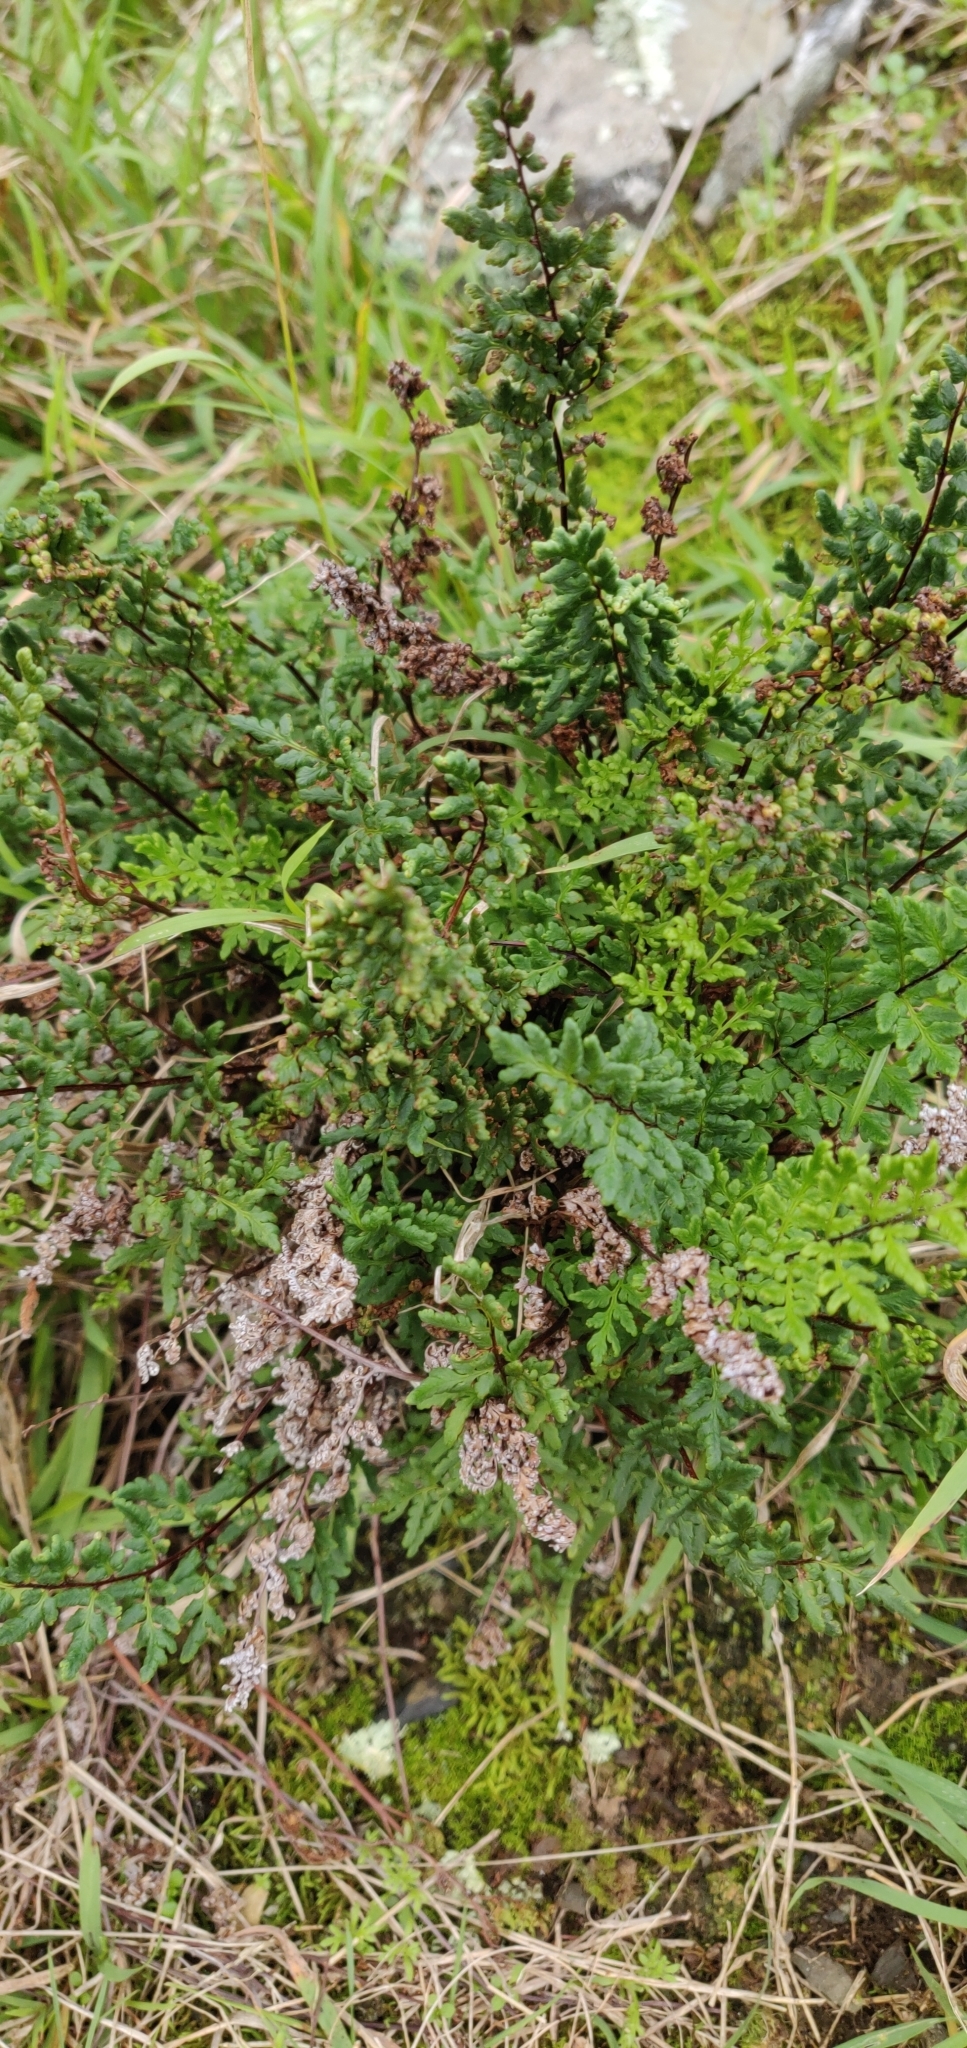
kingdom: Plantae
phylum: Tracheophyta
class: Polypodiopsida
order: Polypodiales
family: Pteridaceae
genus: Cheilanthes
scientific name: Cheilanthes sieberi
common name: Mulga fern
